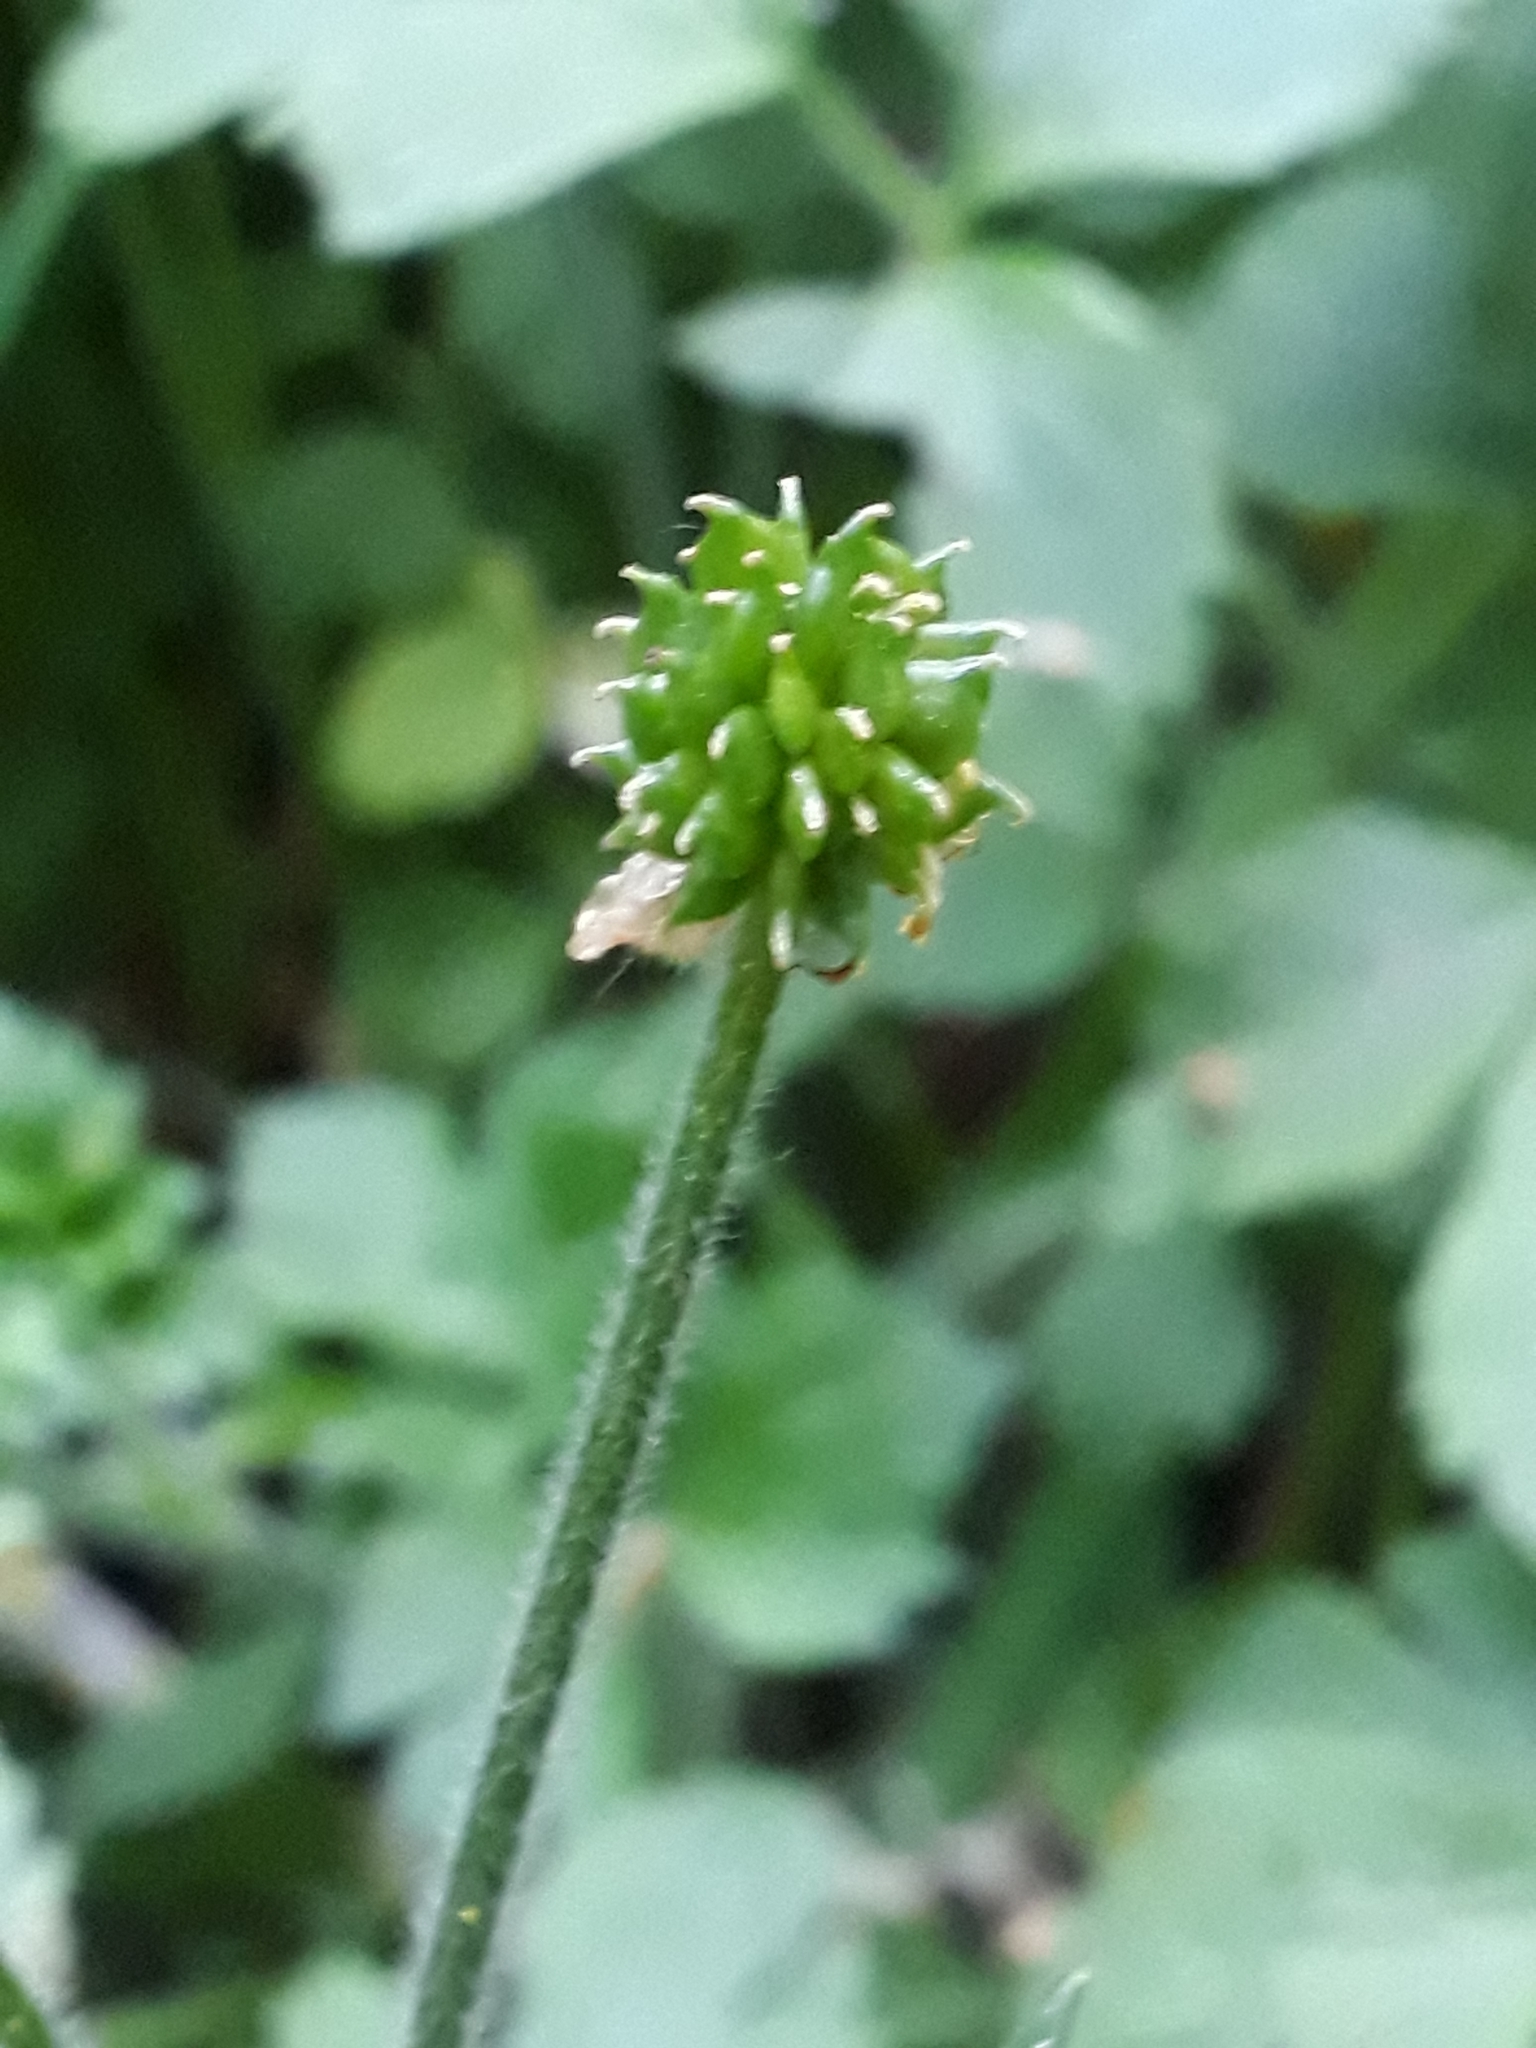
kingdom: Plantae
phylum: Tracheophyta
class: Magnoliopsida
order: Ranunculales
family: Ranunculaceae
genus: Ranunculus
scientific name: Ranunculus repens
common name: Creeping buttercup
